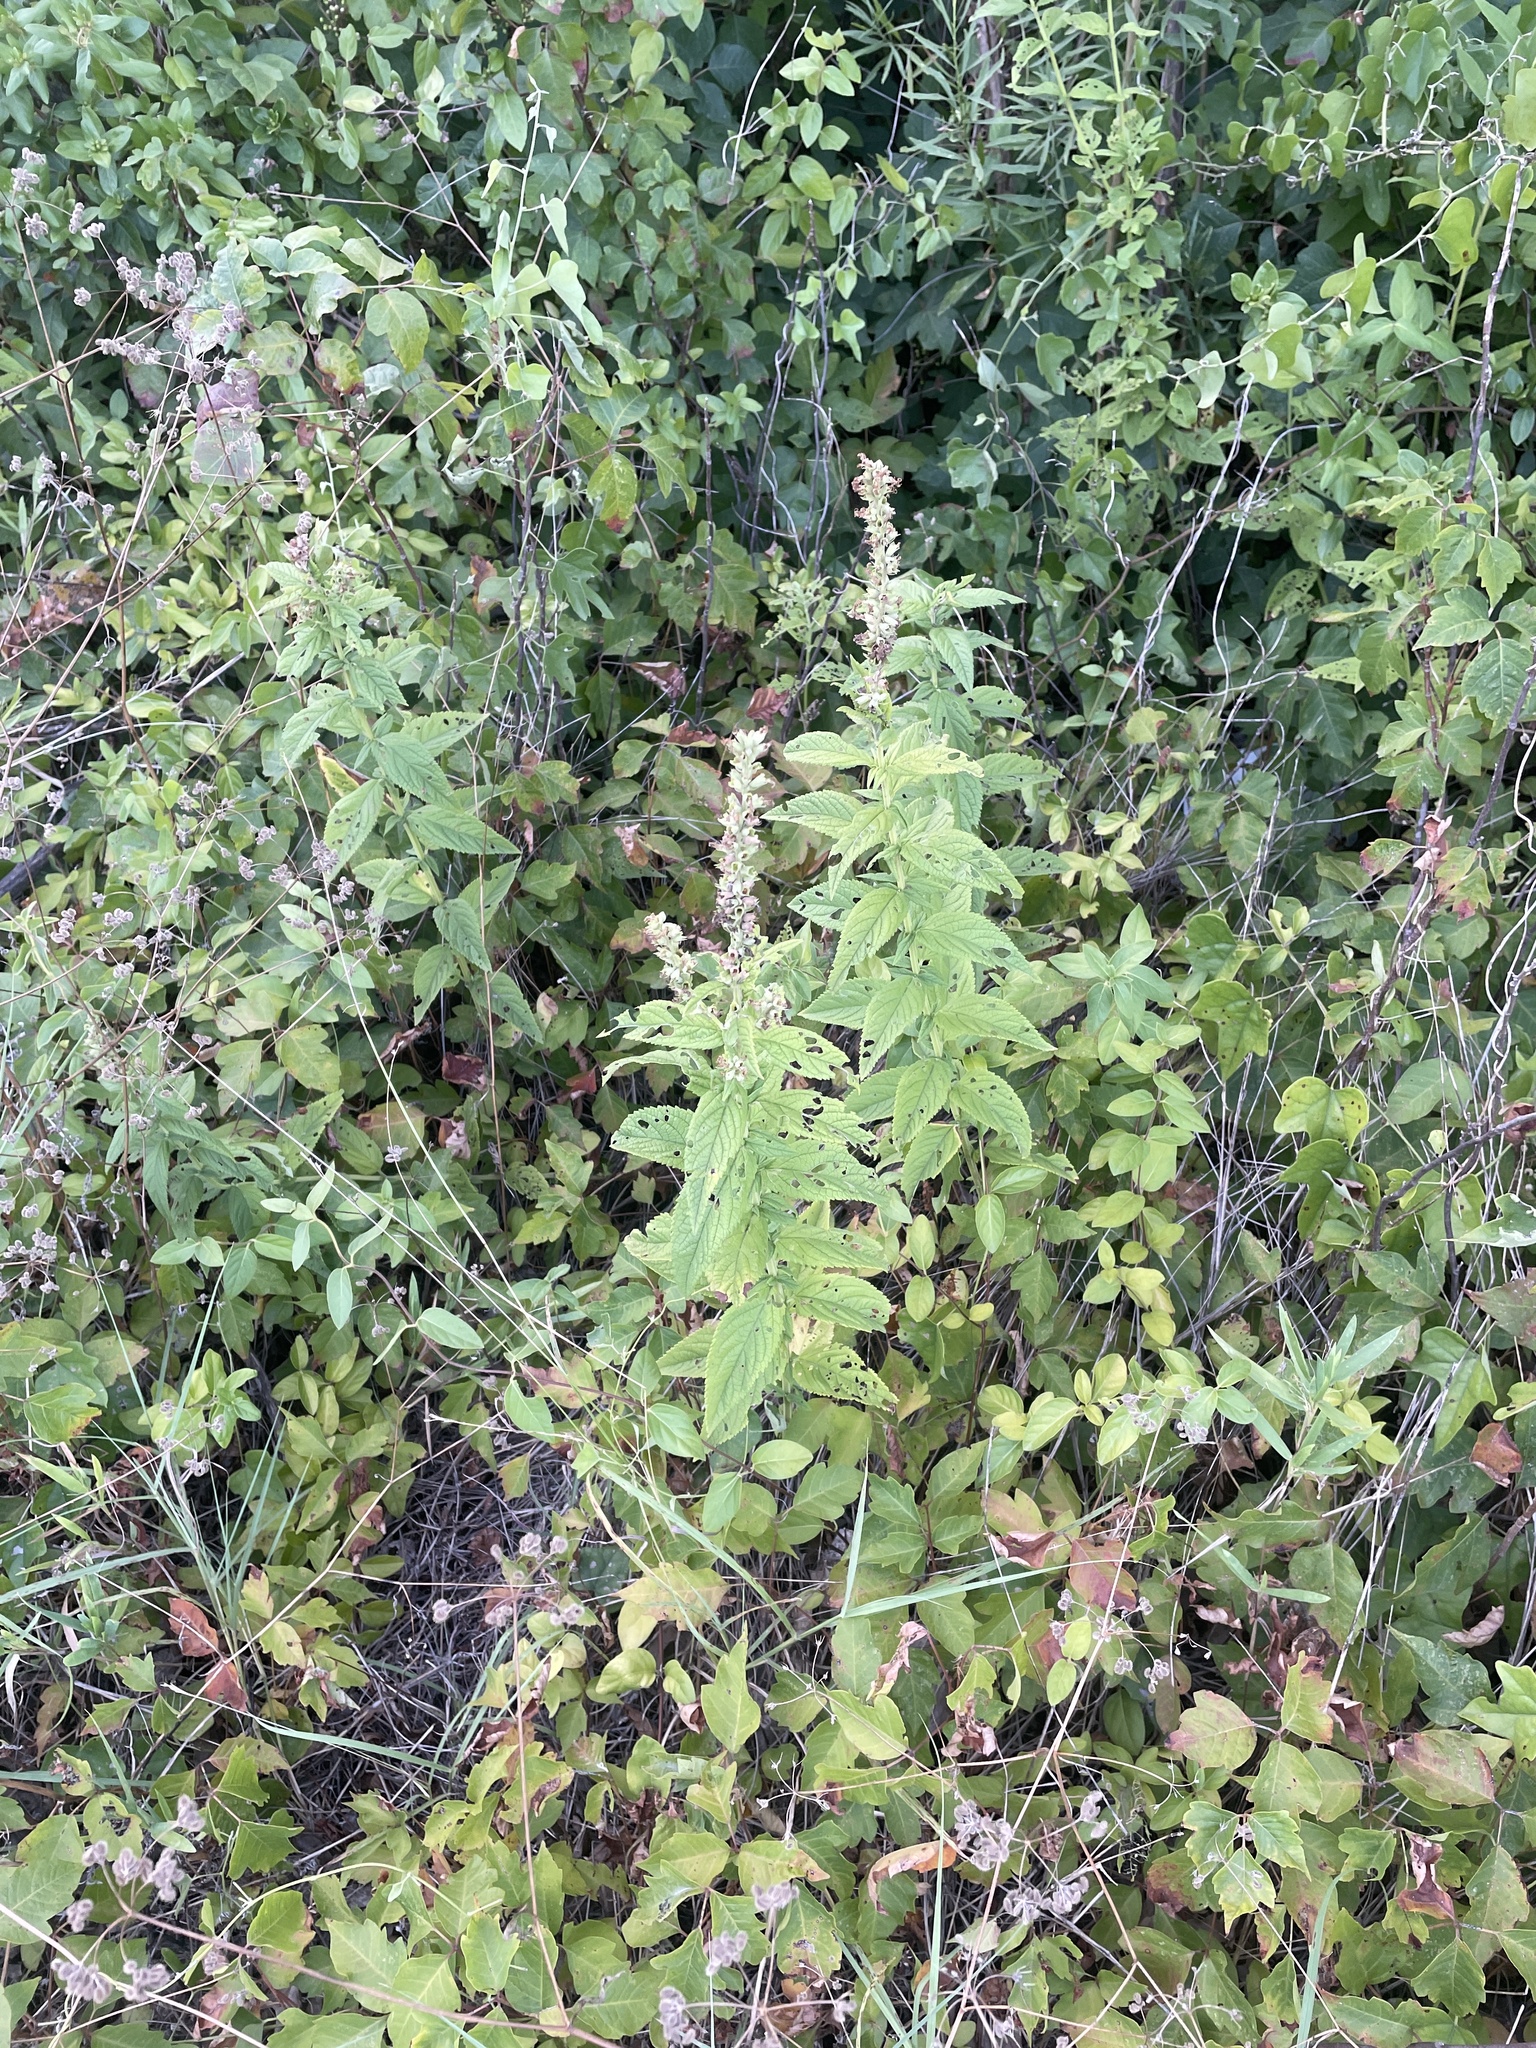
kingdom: Plantae
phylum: Tracheophyta
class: Magnoliopsida
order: Lamiales
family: Lamiaceae
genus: Teucrium
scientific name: Teucrium canadense
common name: American germander
